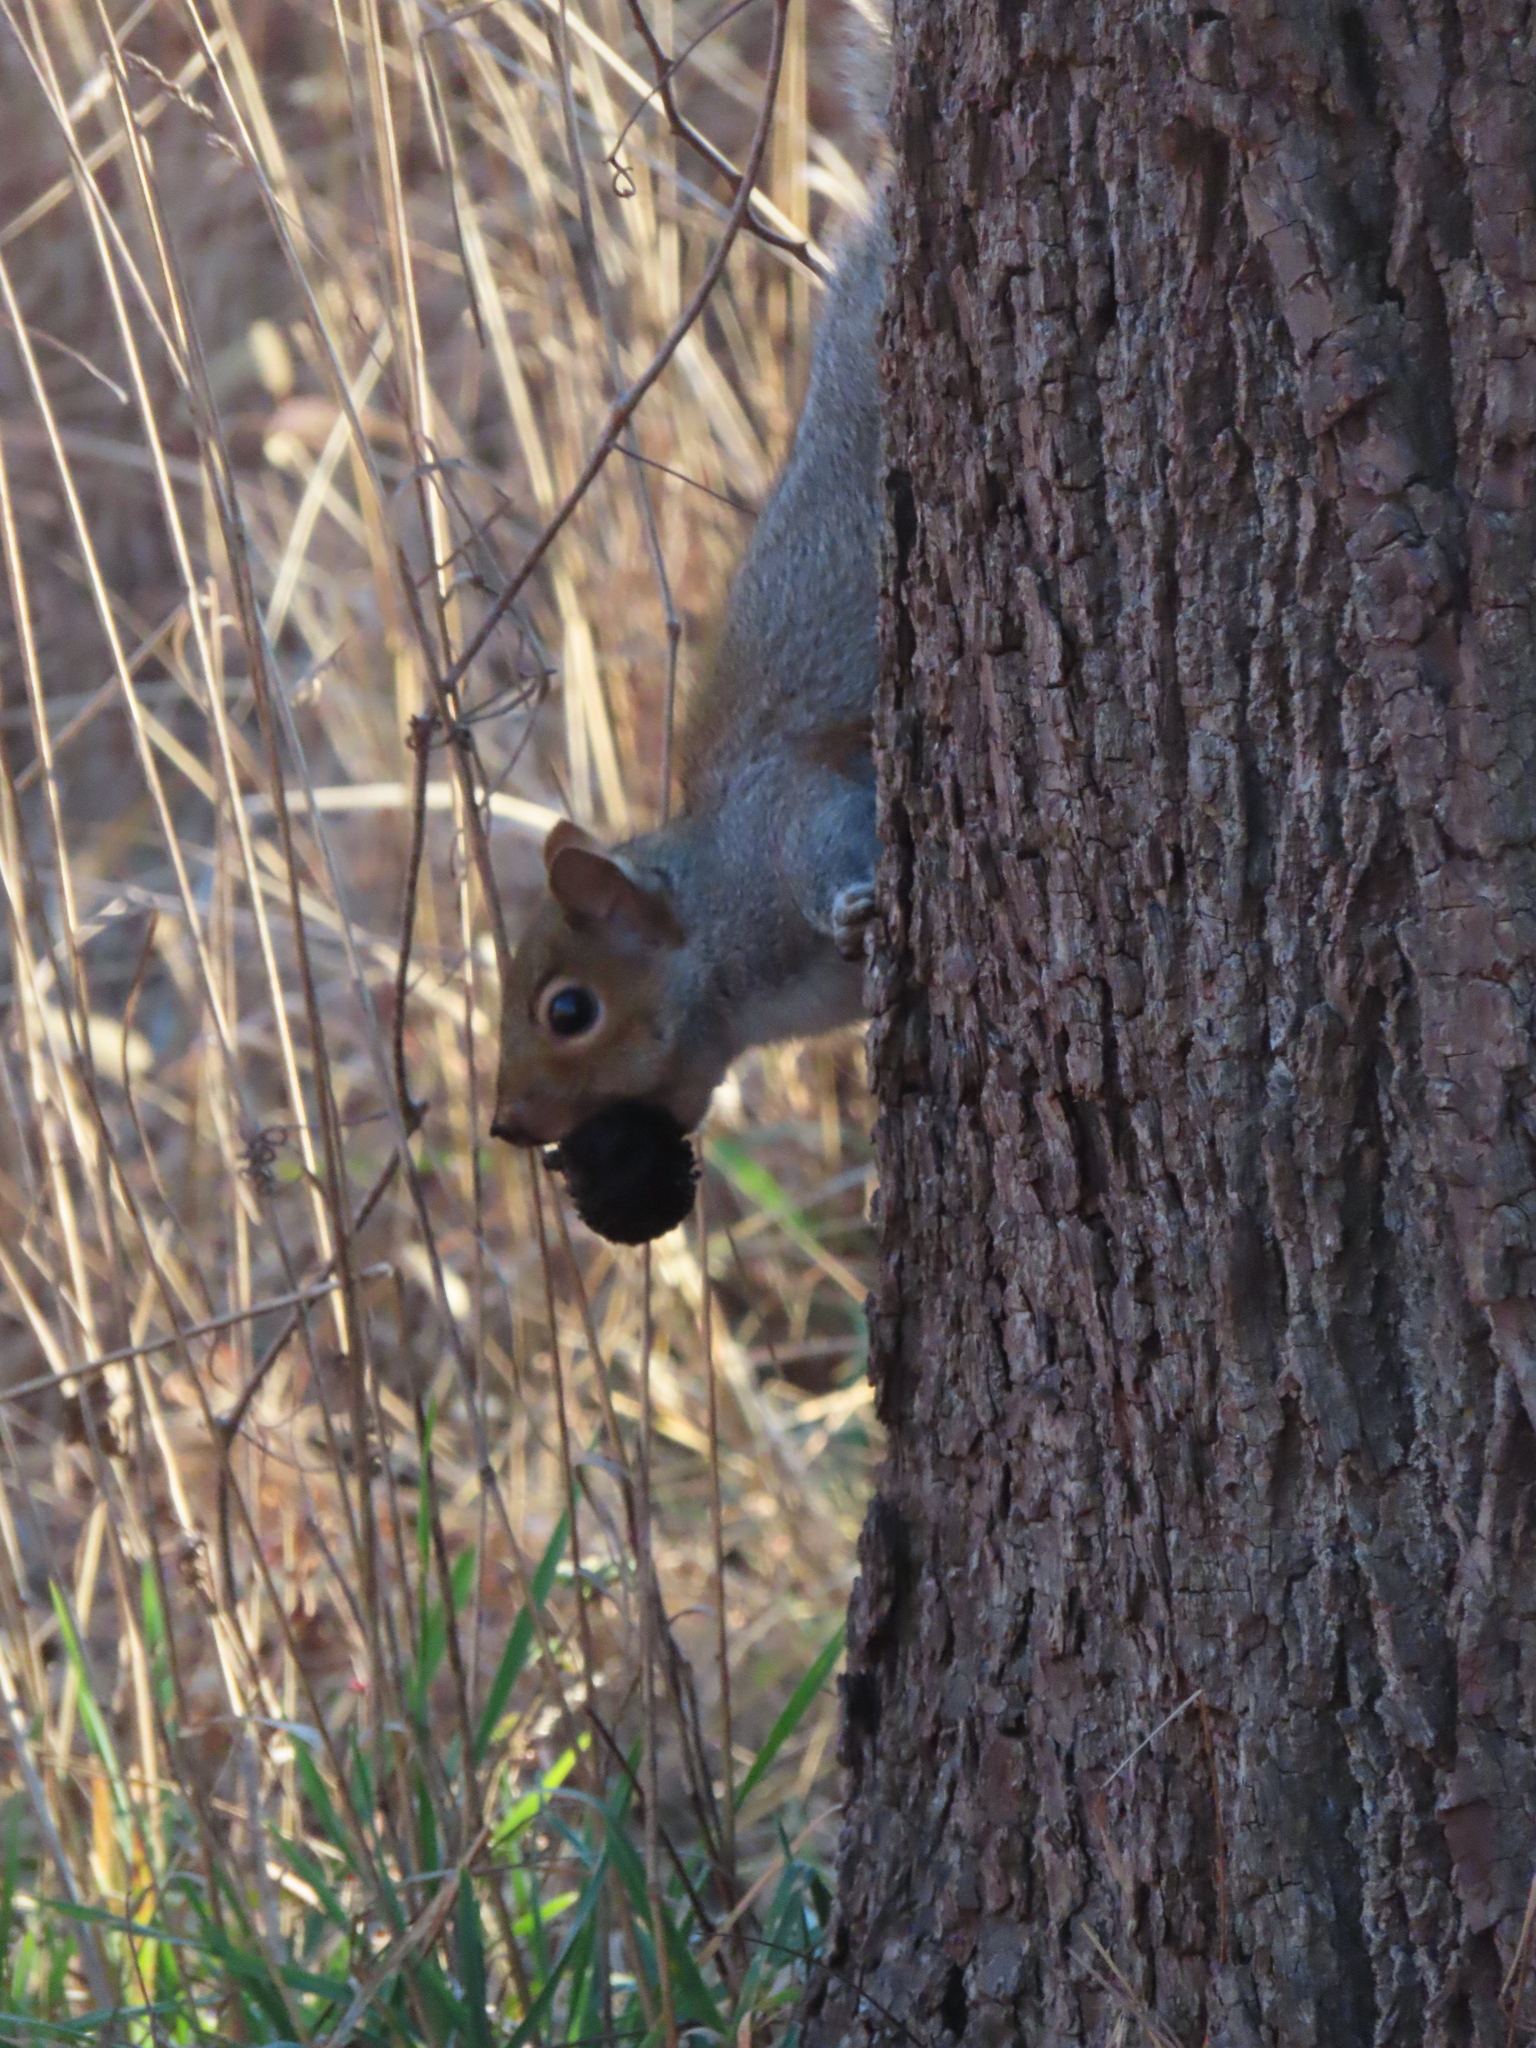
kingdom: Animalia
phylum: Chordata
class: Mammalia
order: Rodentia
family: Sciuridae
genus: Sciurus
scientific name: Sciurus carolinensis
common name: Eastern gray squirrel
